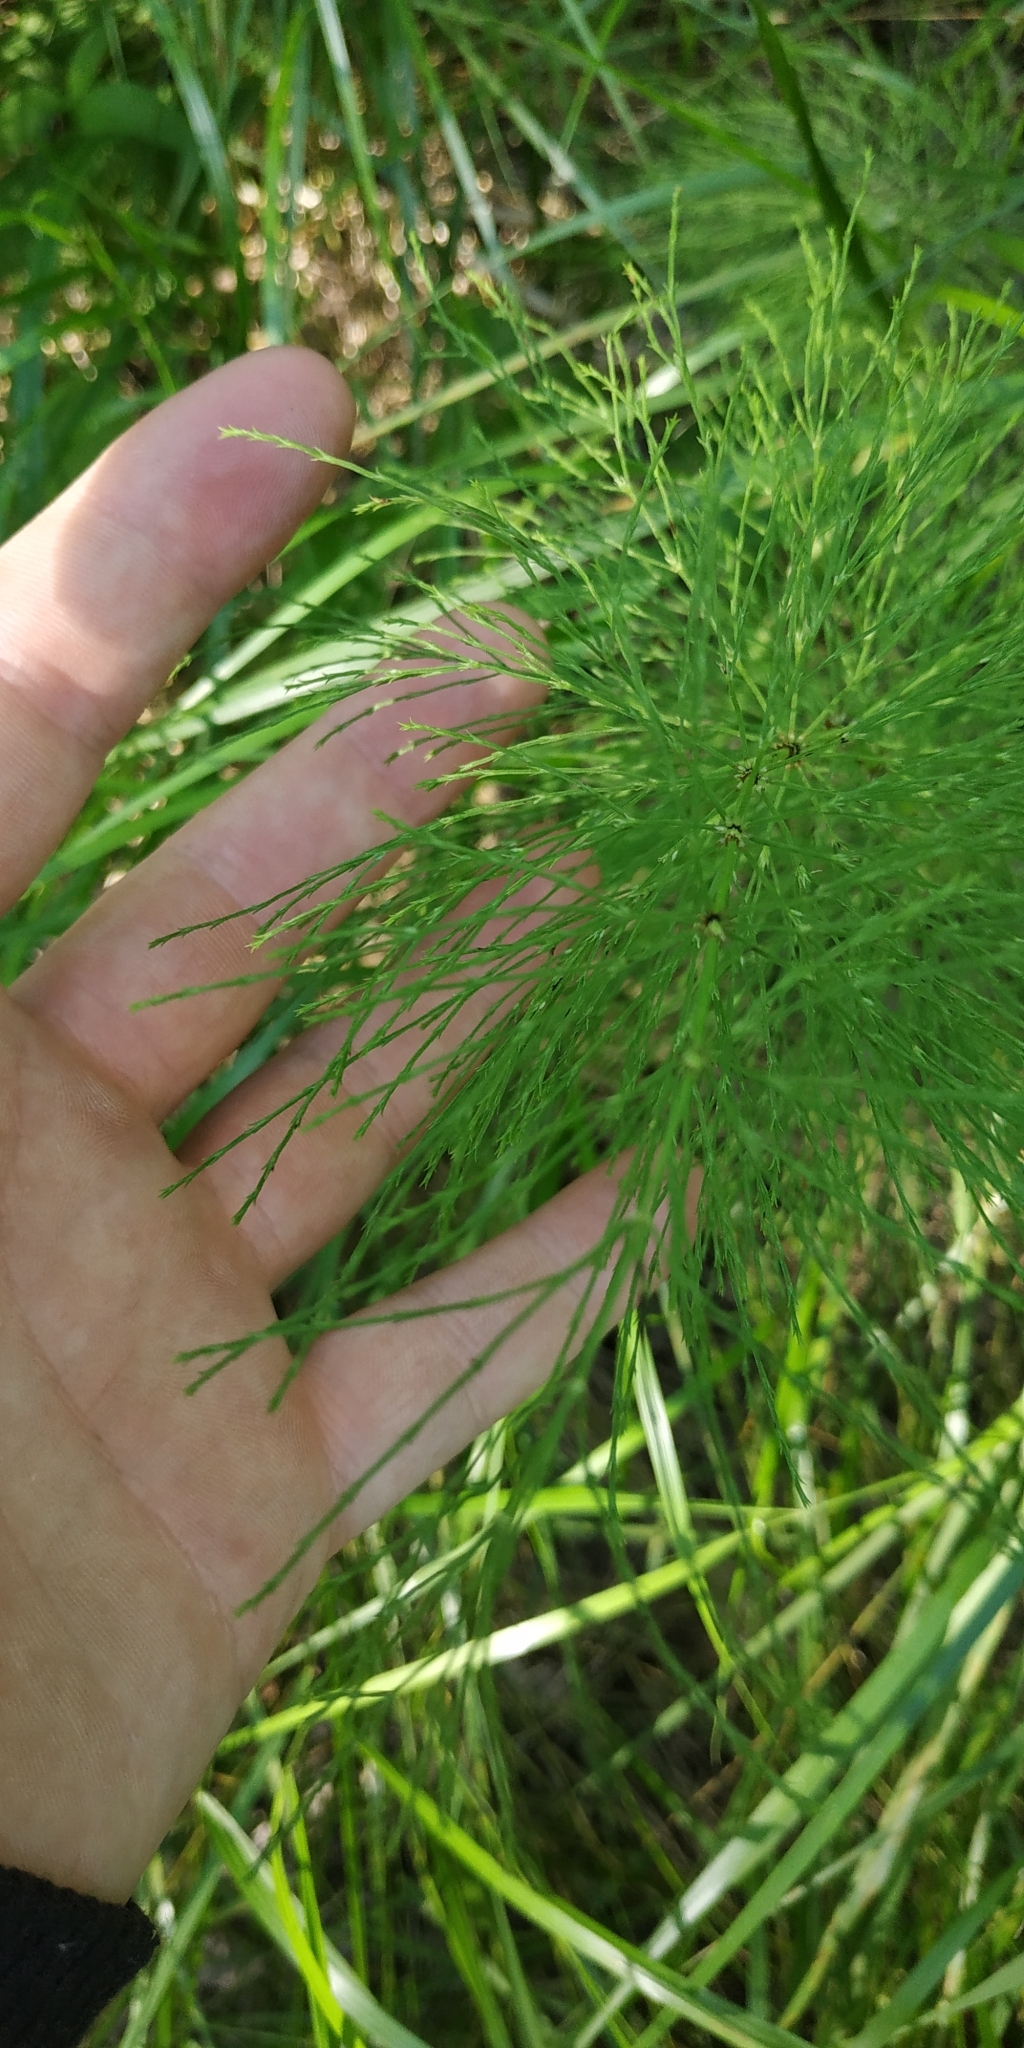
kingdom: Plantae
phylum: Tracheophyta
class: Polypodiopsida
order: Equisetales
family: Equisetaceae
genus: Equisetum
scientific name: Equisetum sylvaticum
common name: Wood horsetail
